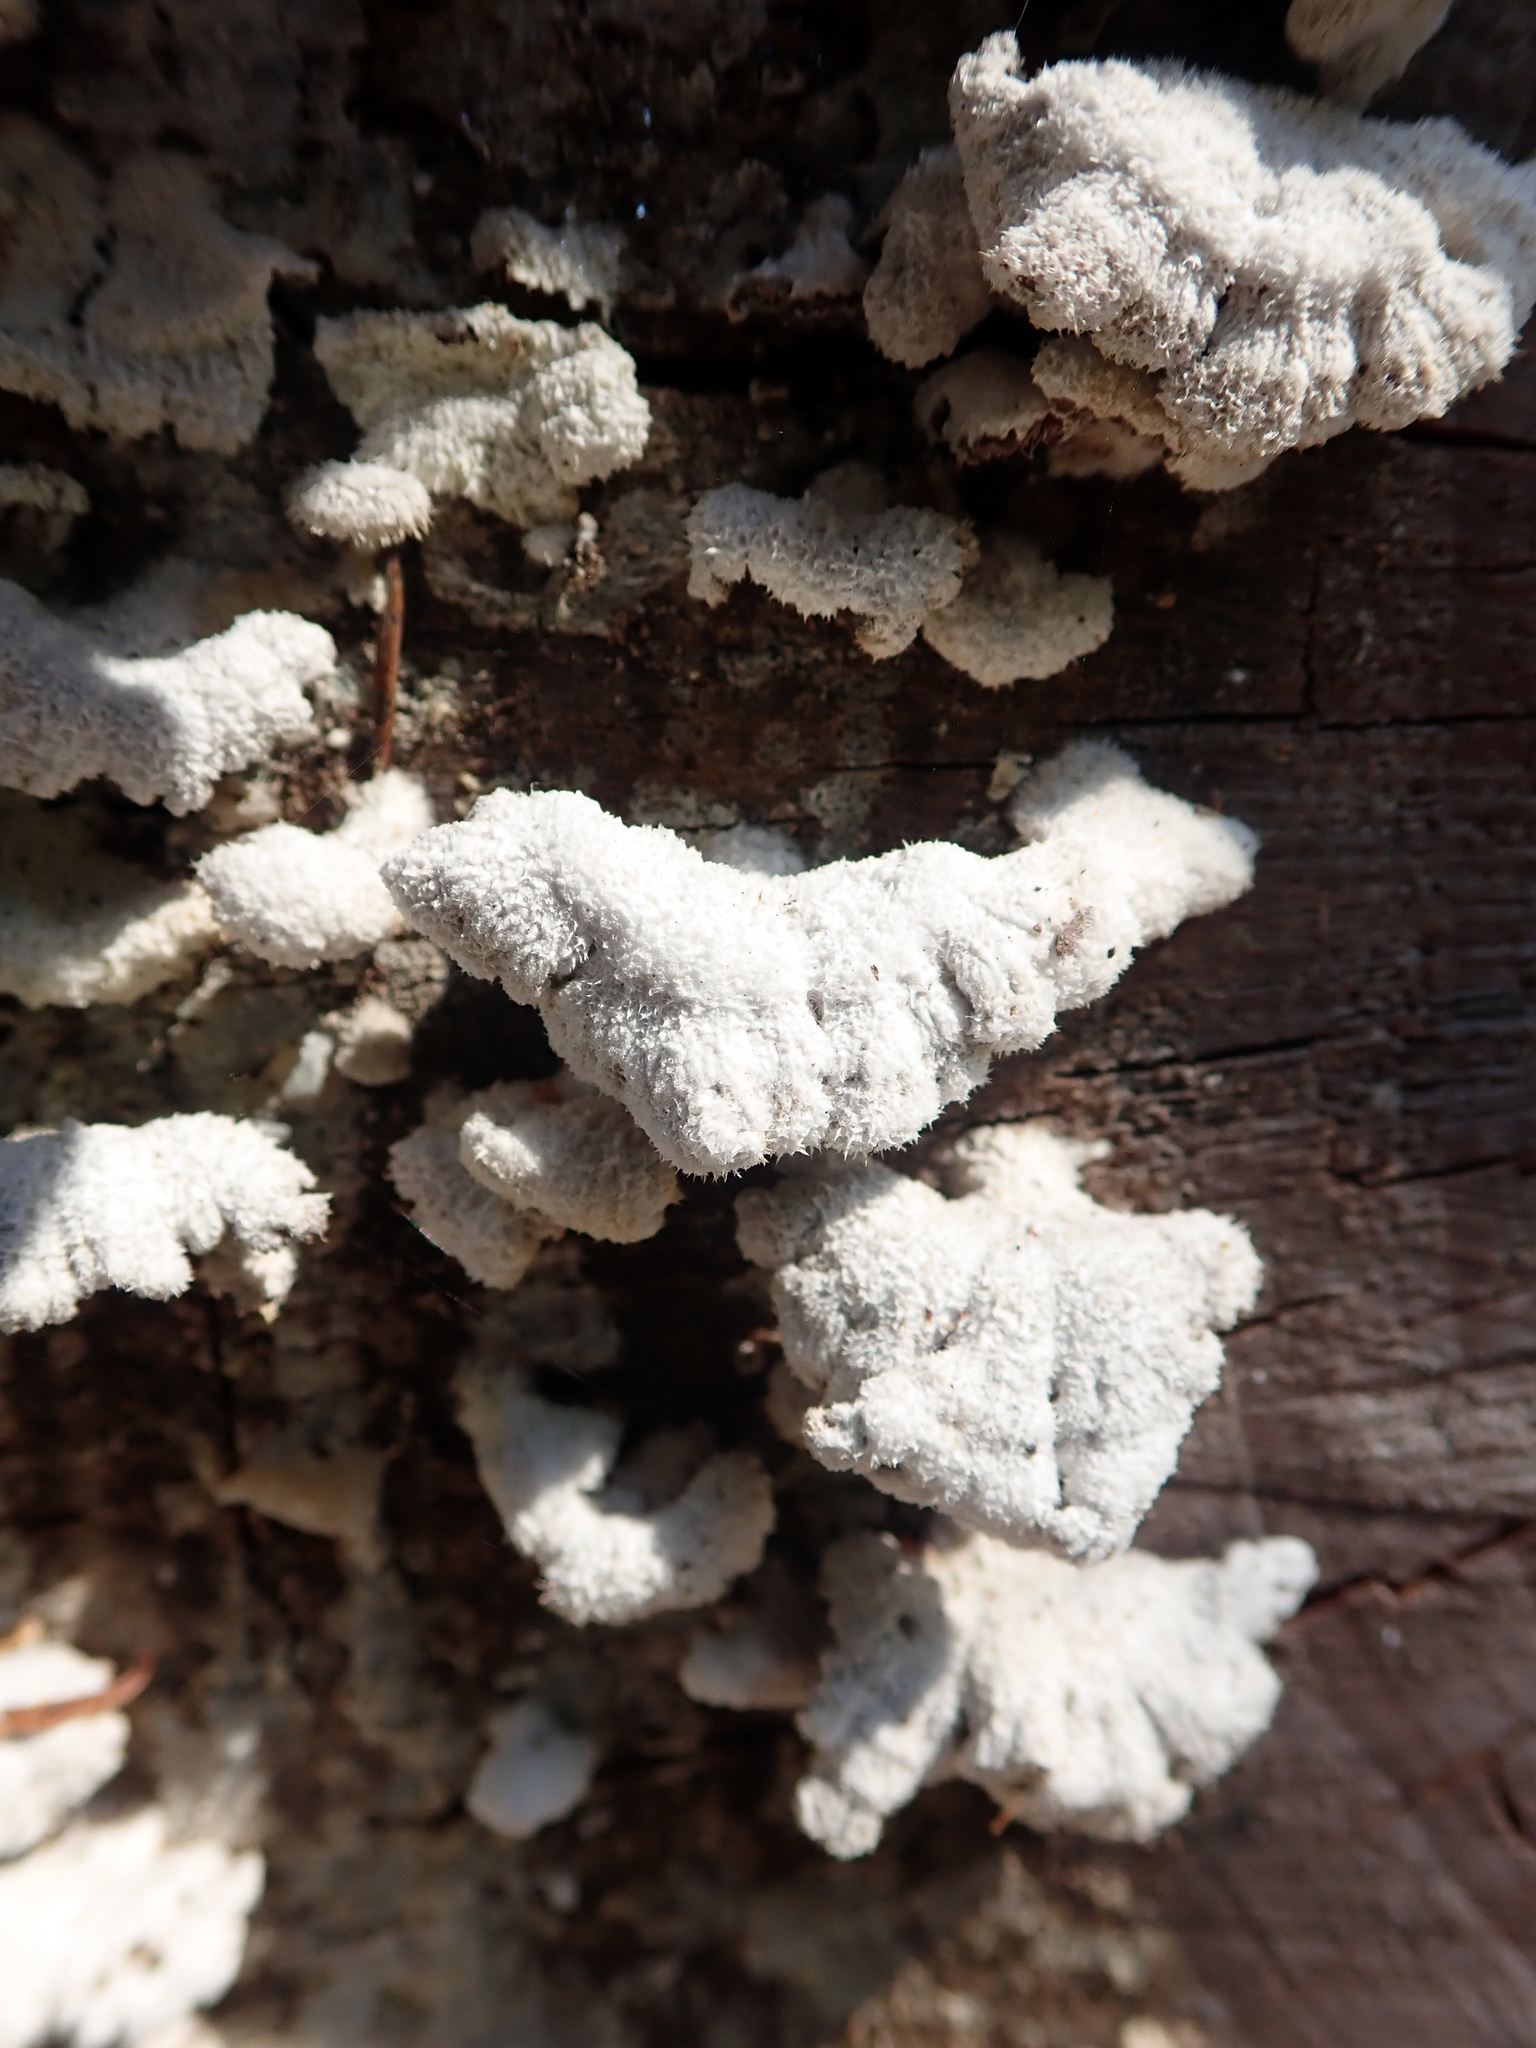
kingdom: Fungi
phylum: Basidiomycota
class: Agaricomycetes
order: Agaricales
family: Schizophyllaceae
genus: Schizophyllum
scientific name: Schizophyllum commune
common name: Common porecrust
